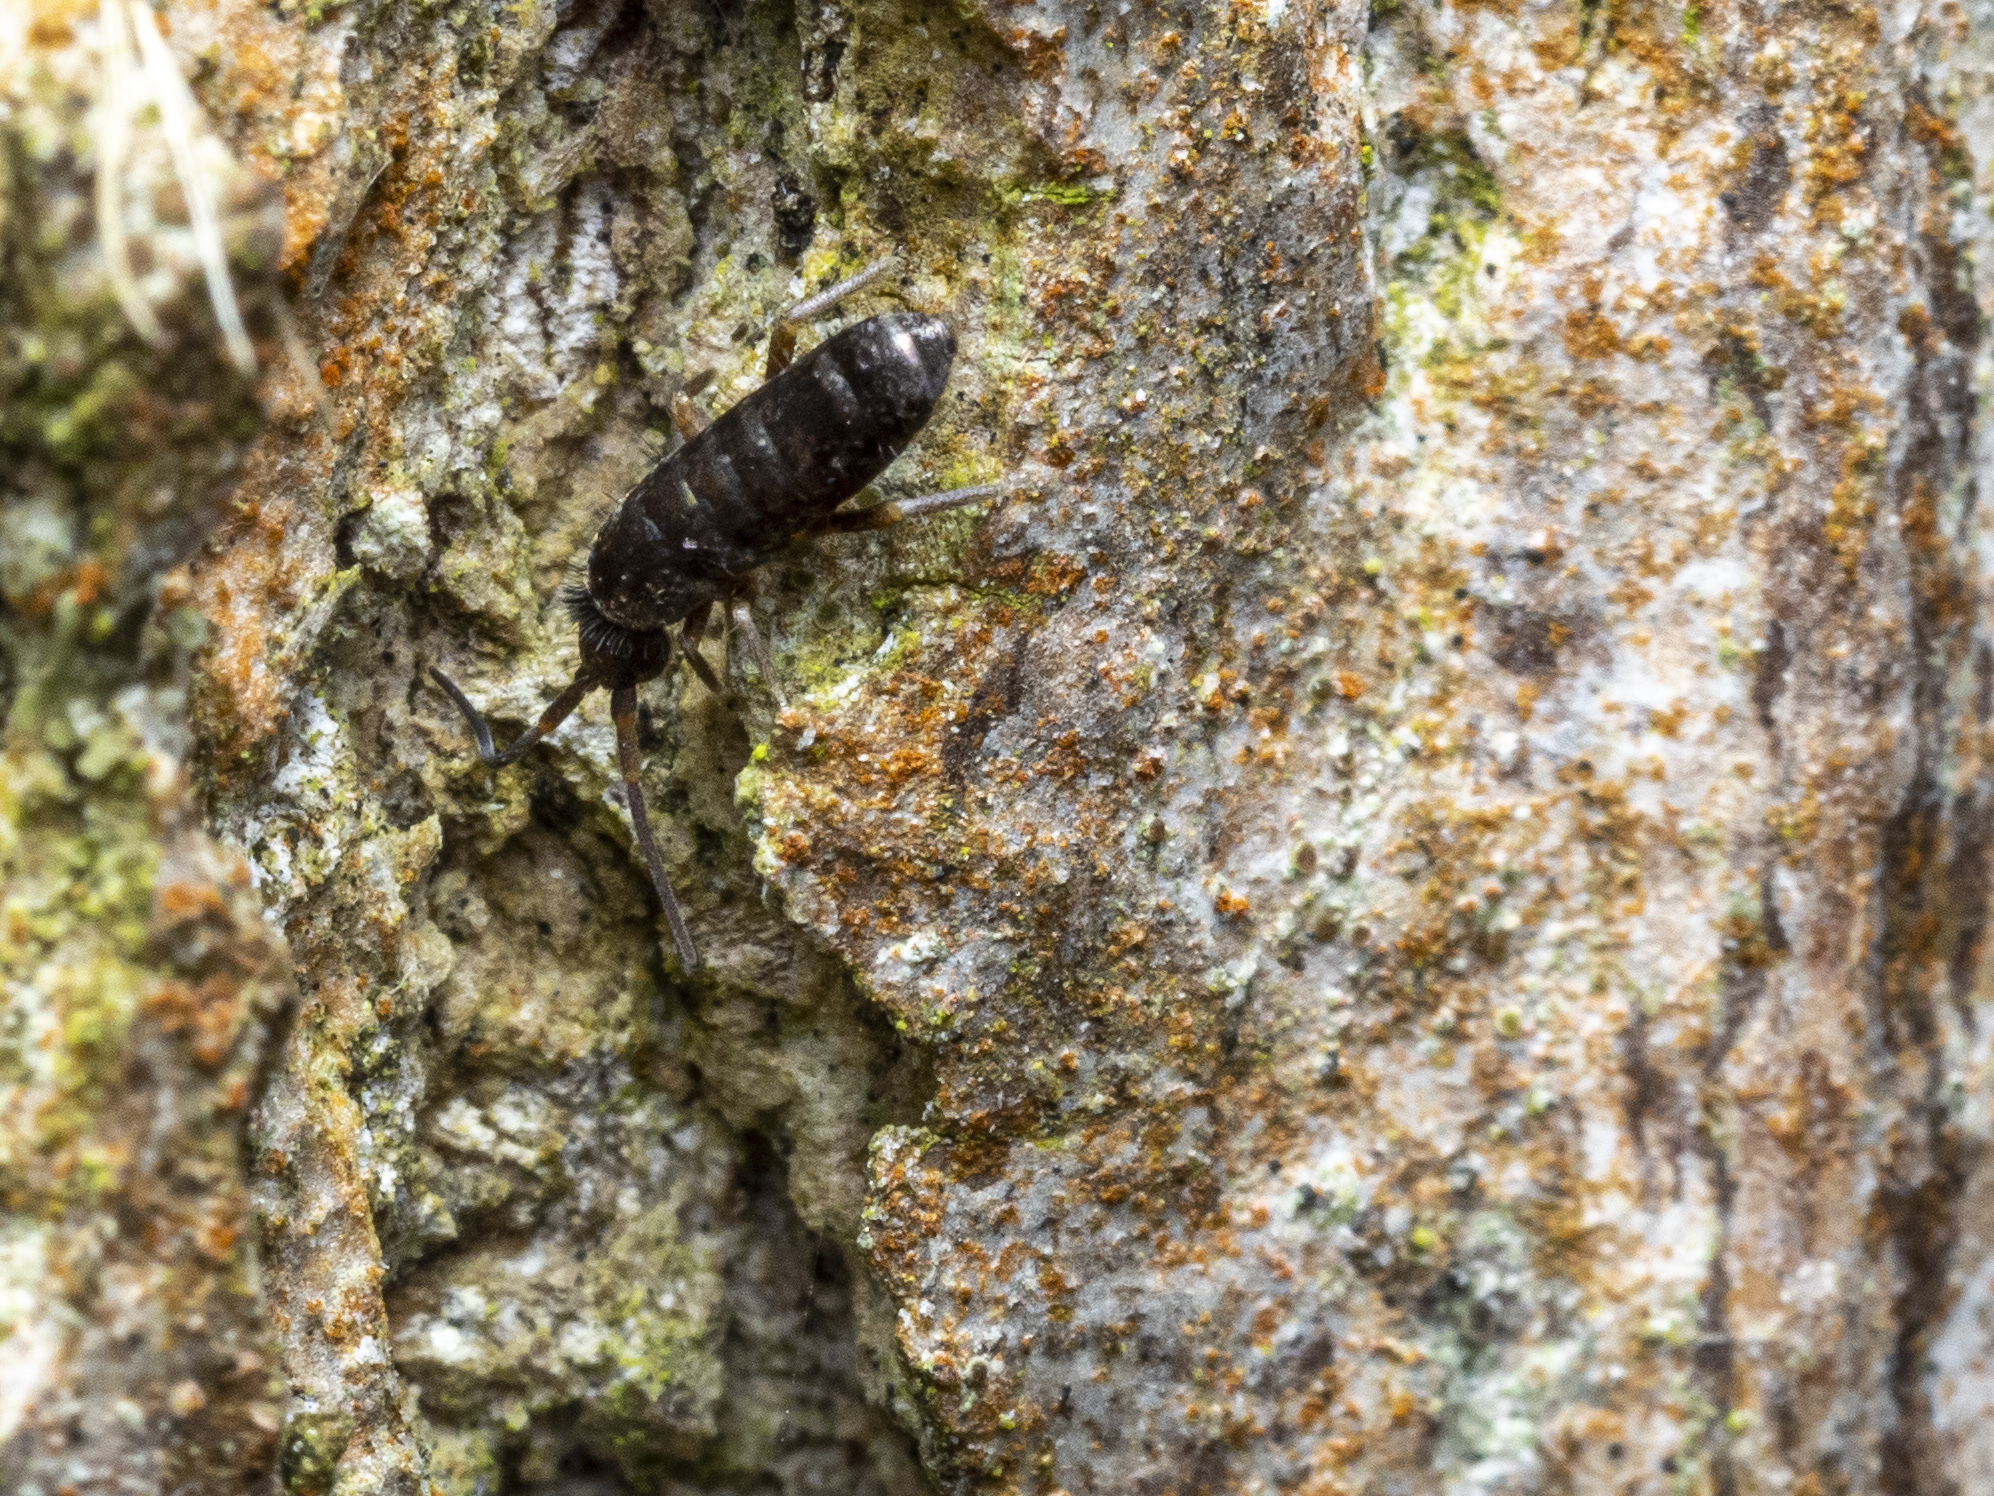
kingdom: Animalia
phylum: Arthropoda
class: Collembola
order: Entomobryomorpha
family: Tomoceridae
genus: Tomocerus
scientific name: Tomocerus vulgaris
